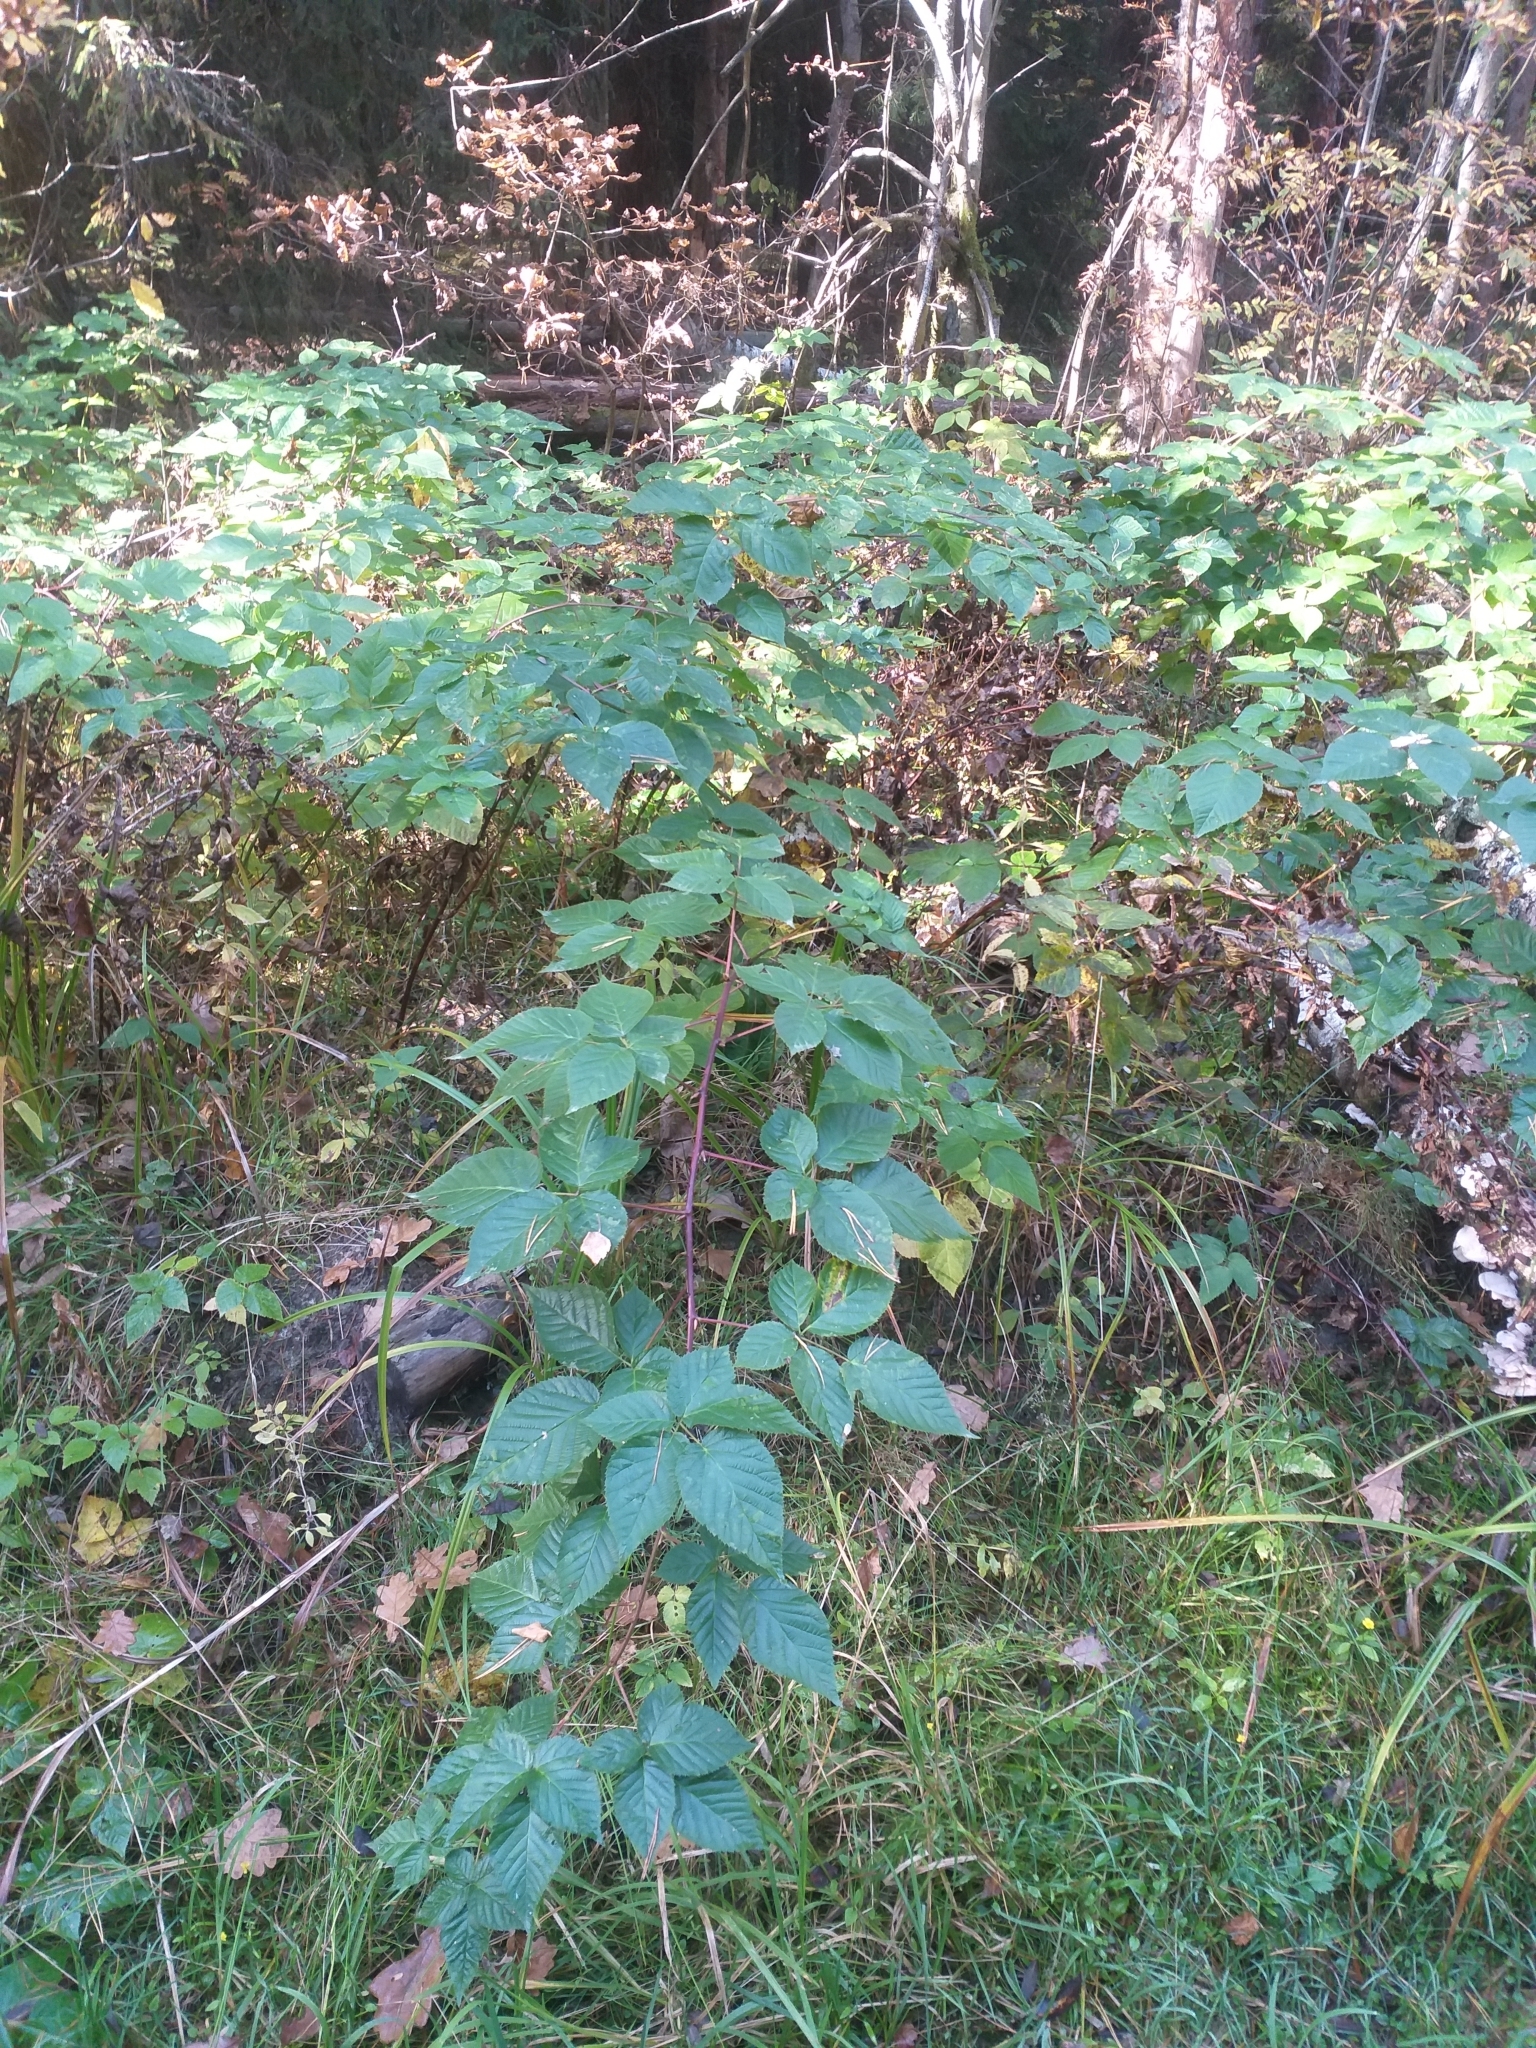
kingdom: Plantae
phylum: Tracheophyta
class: Magnoliopsida
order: Rosales
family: Rosaceae
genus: Rubus
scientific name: Rubus polonicus
